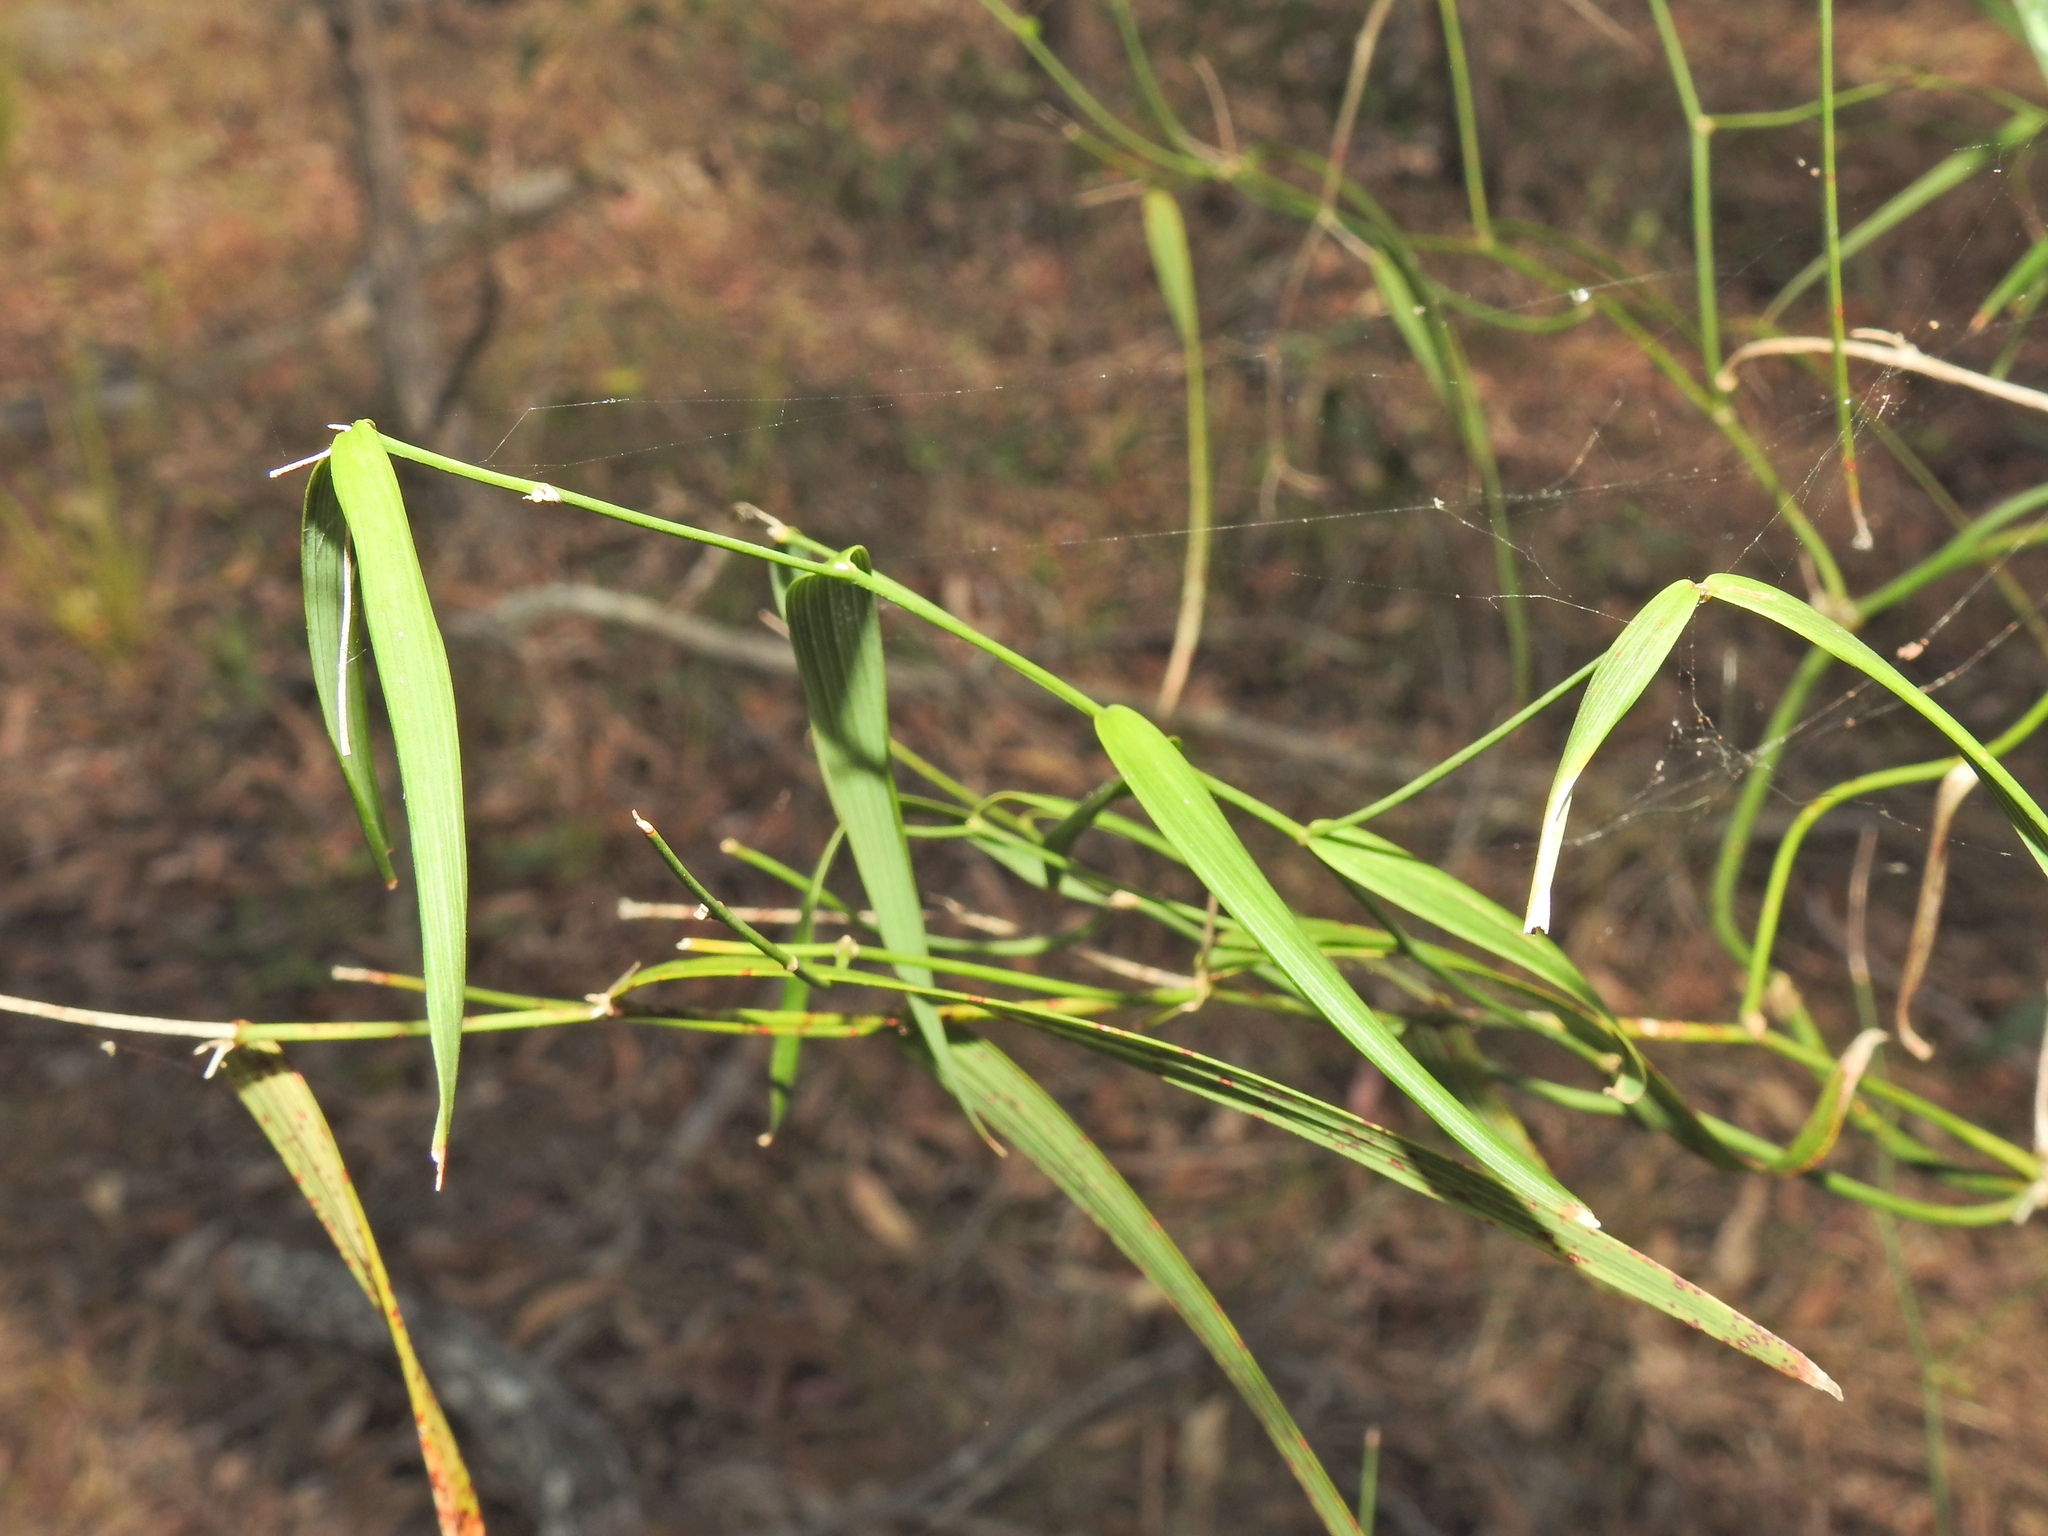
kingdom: Plantae
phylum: Tracheophyta
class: Liliopsida
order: Asparagales
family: Asparagaceae
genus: Eustrephus
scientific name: Eustrephus latifolius
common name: Orangevine
